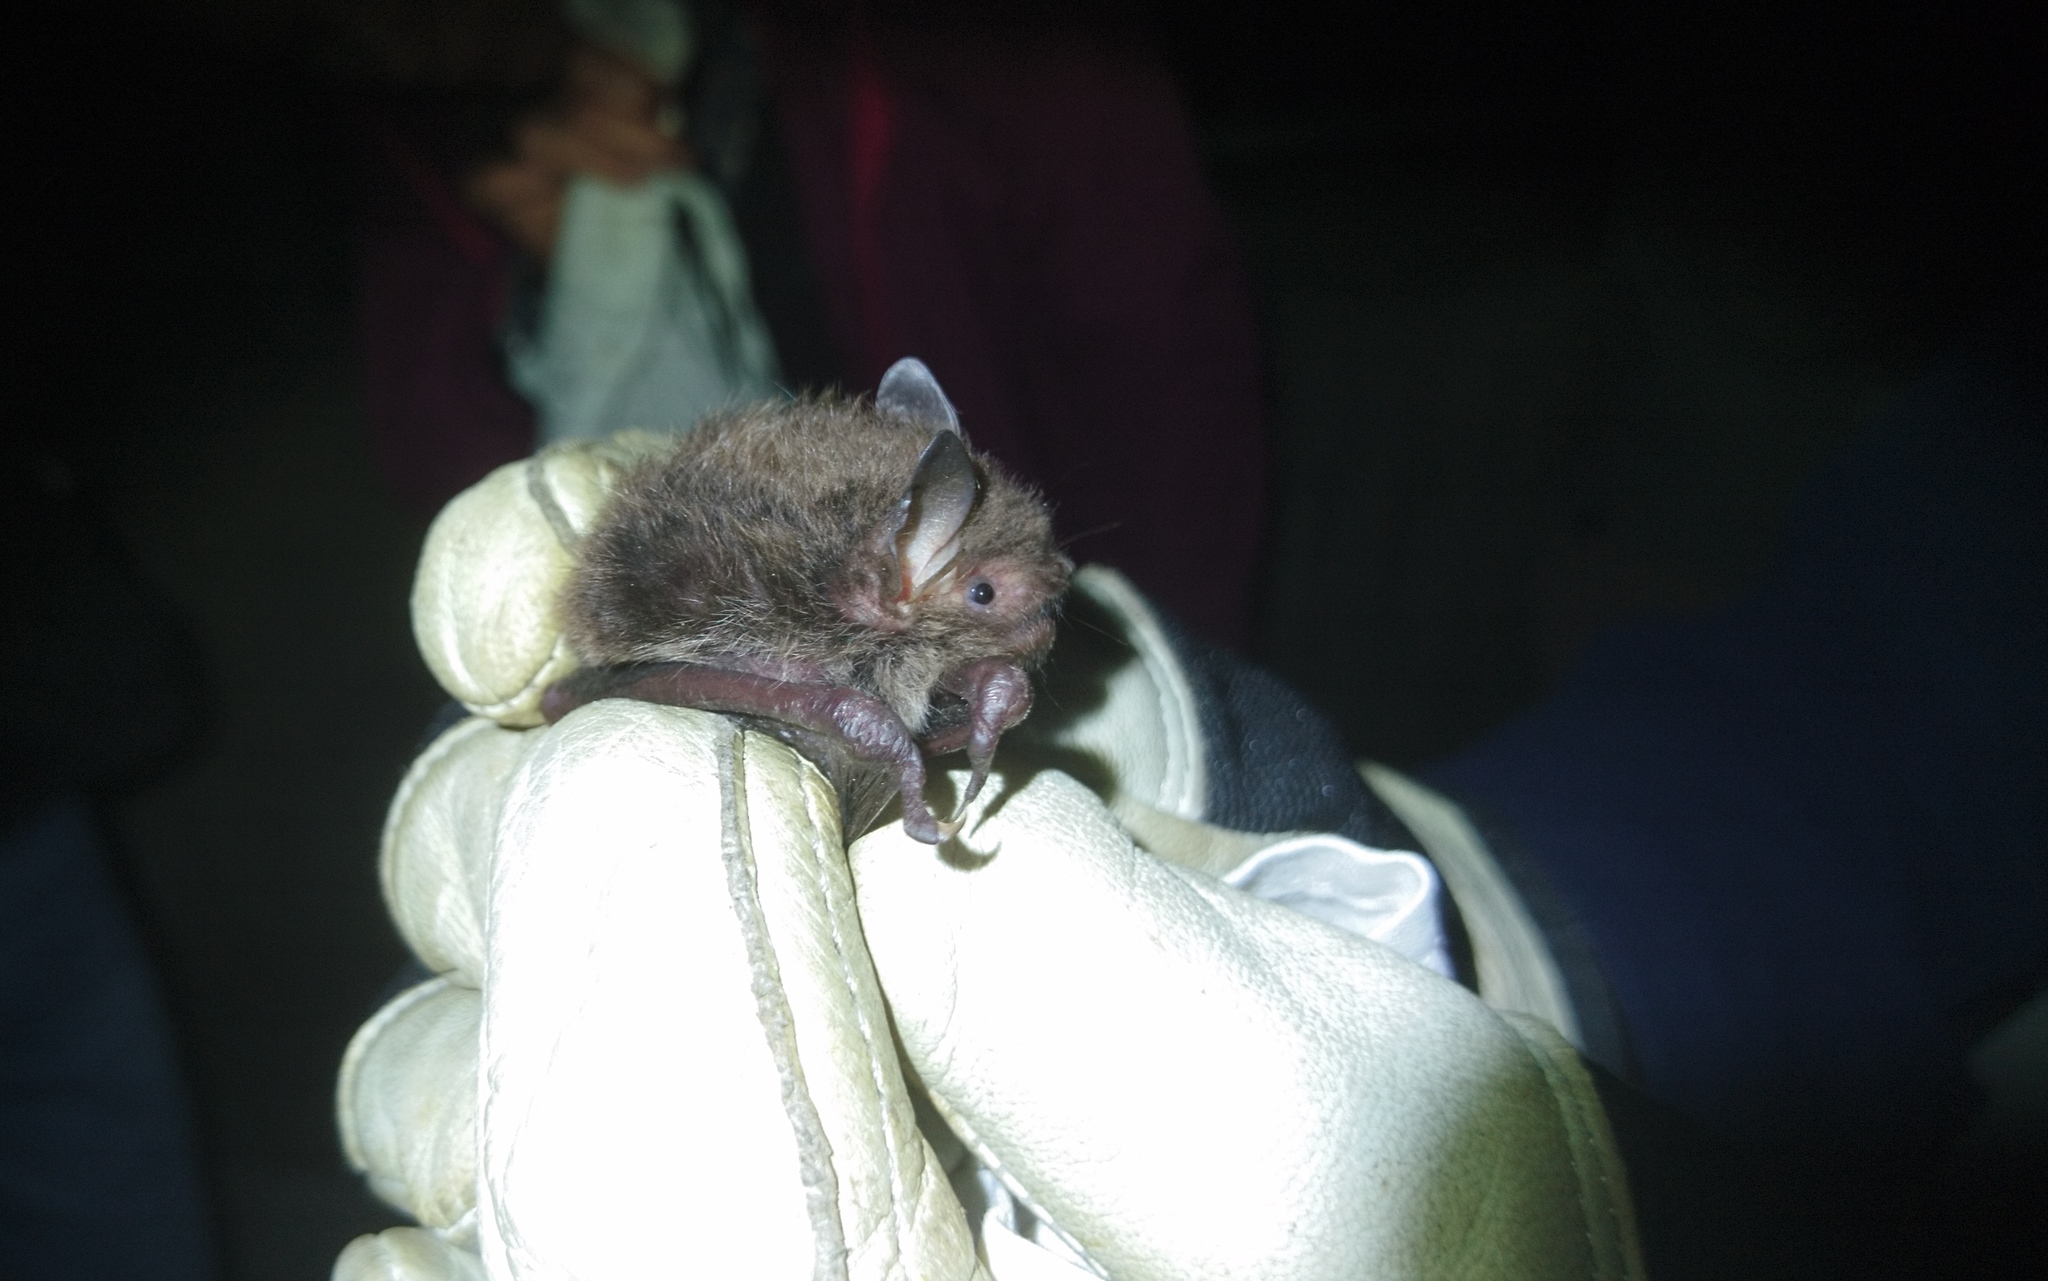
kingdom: Animalia
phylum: Chordata
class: Mammalia
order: Chiroptera
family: Vespertilionidae
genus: Myotis
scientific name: Myotis daubentonii
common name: Daubenton's myotis
